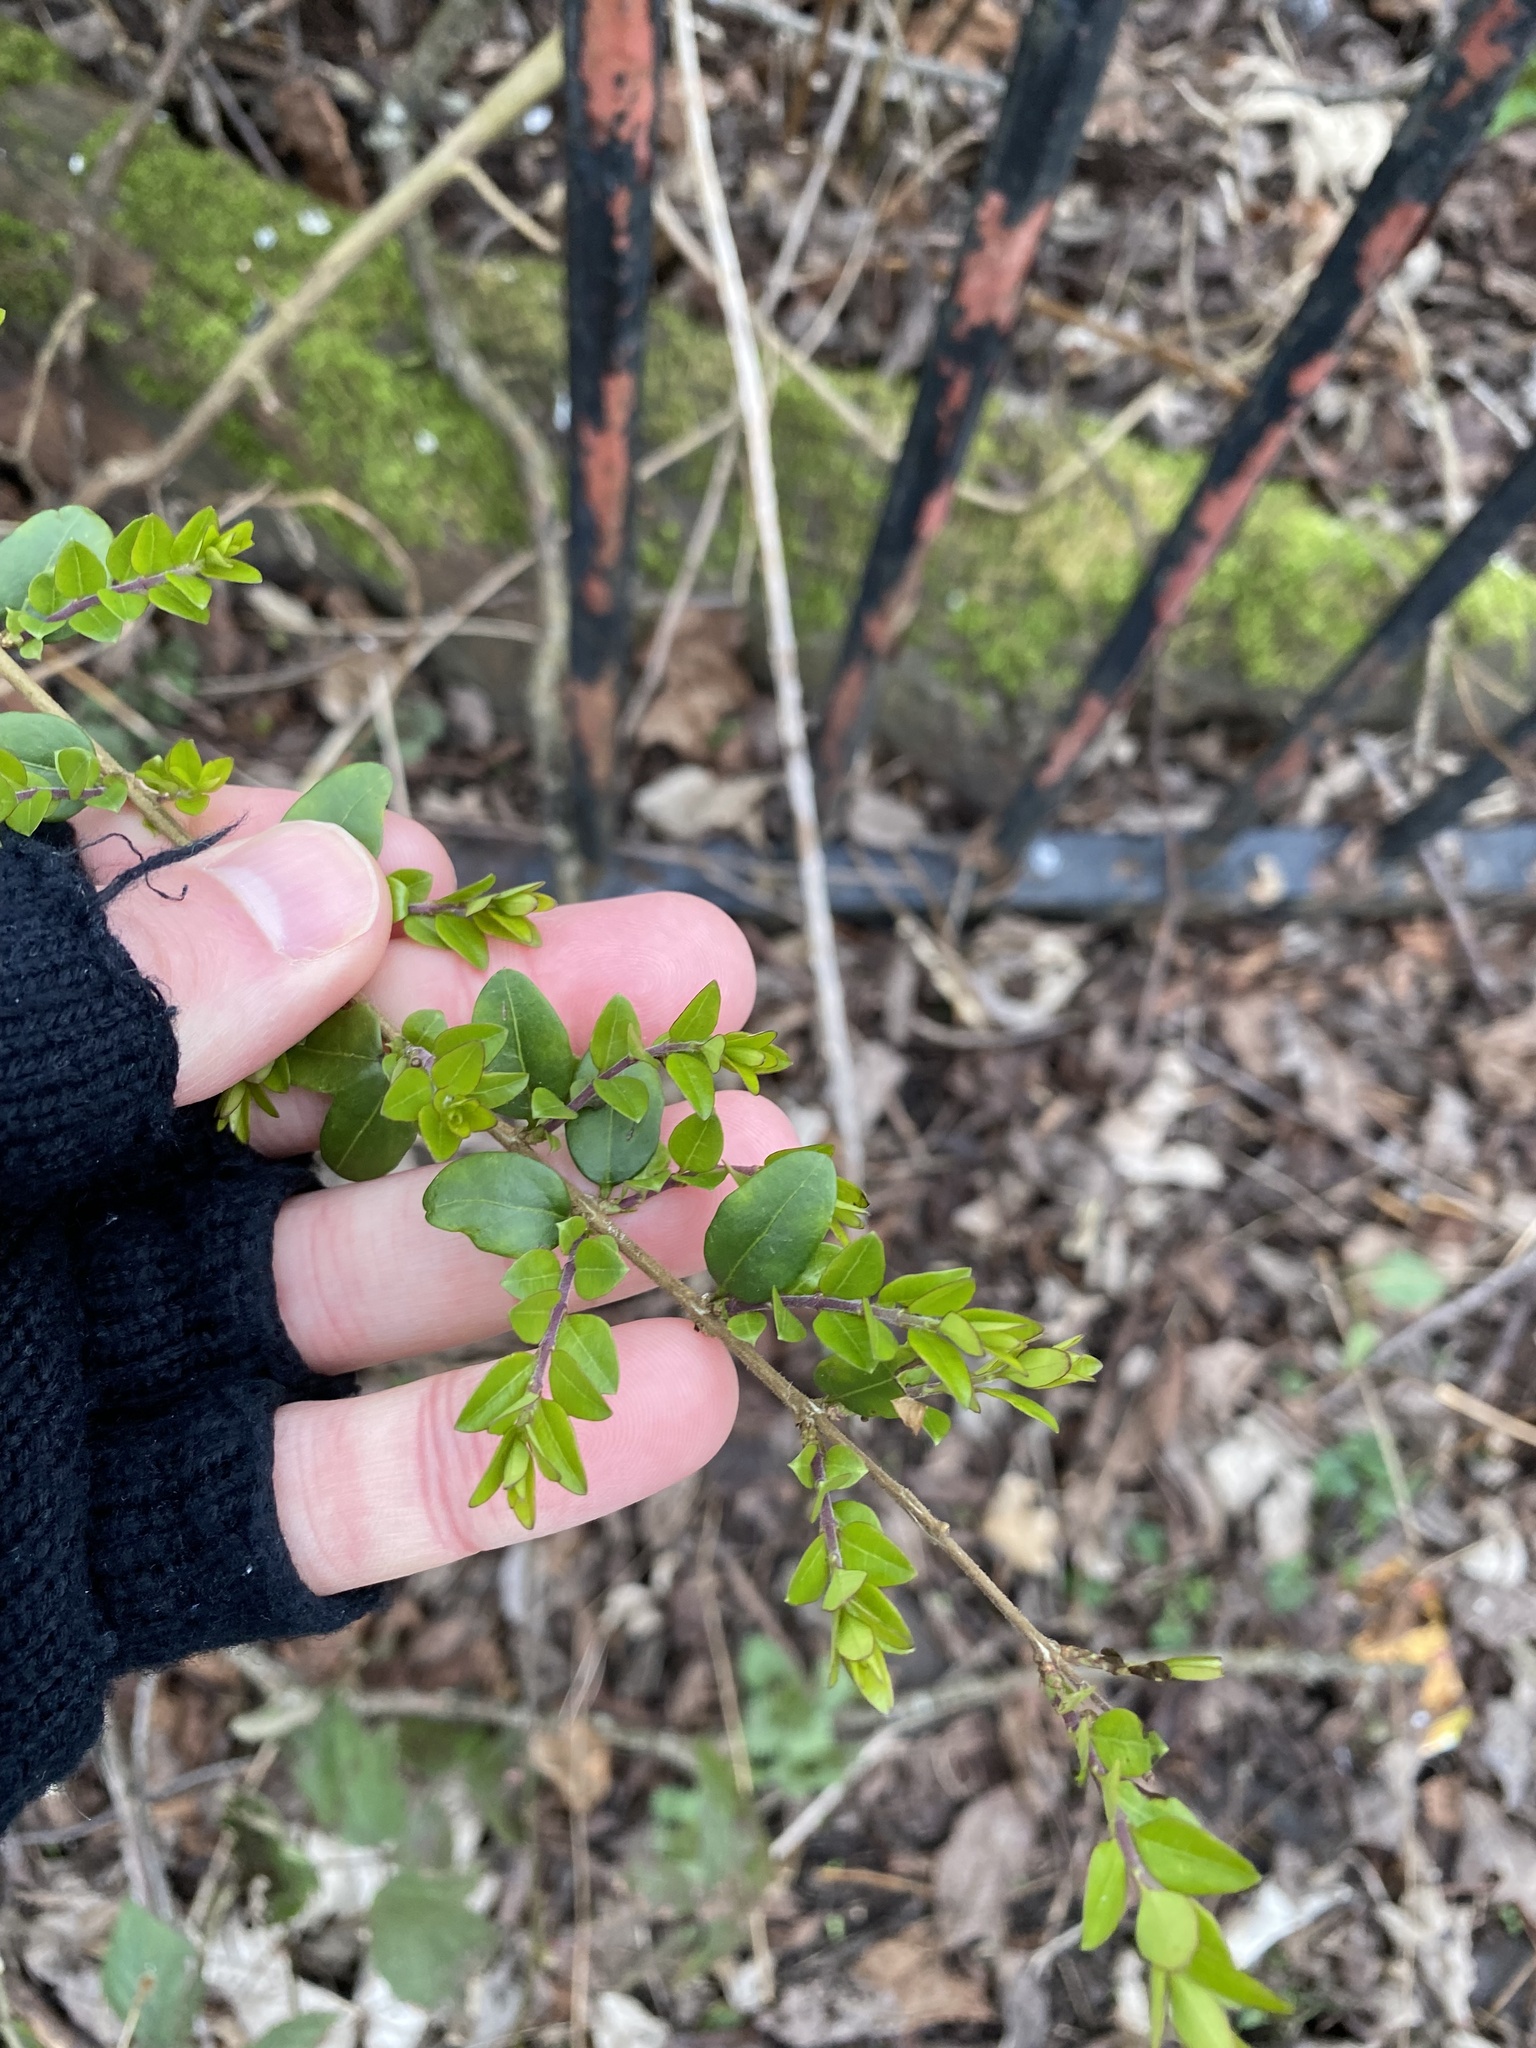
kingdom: Plantae
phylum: Tracheophyta
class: Magnoliopsida
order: Dipsacales
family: Caprifoliaceae
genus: Lonicera
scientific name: Lonicera ligustrina
